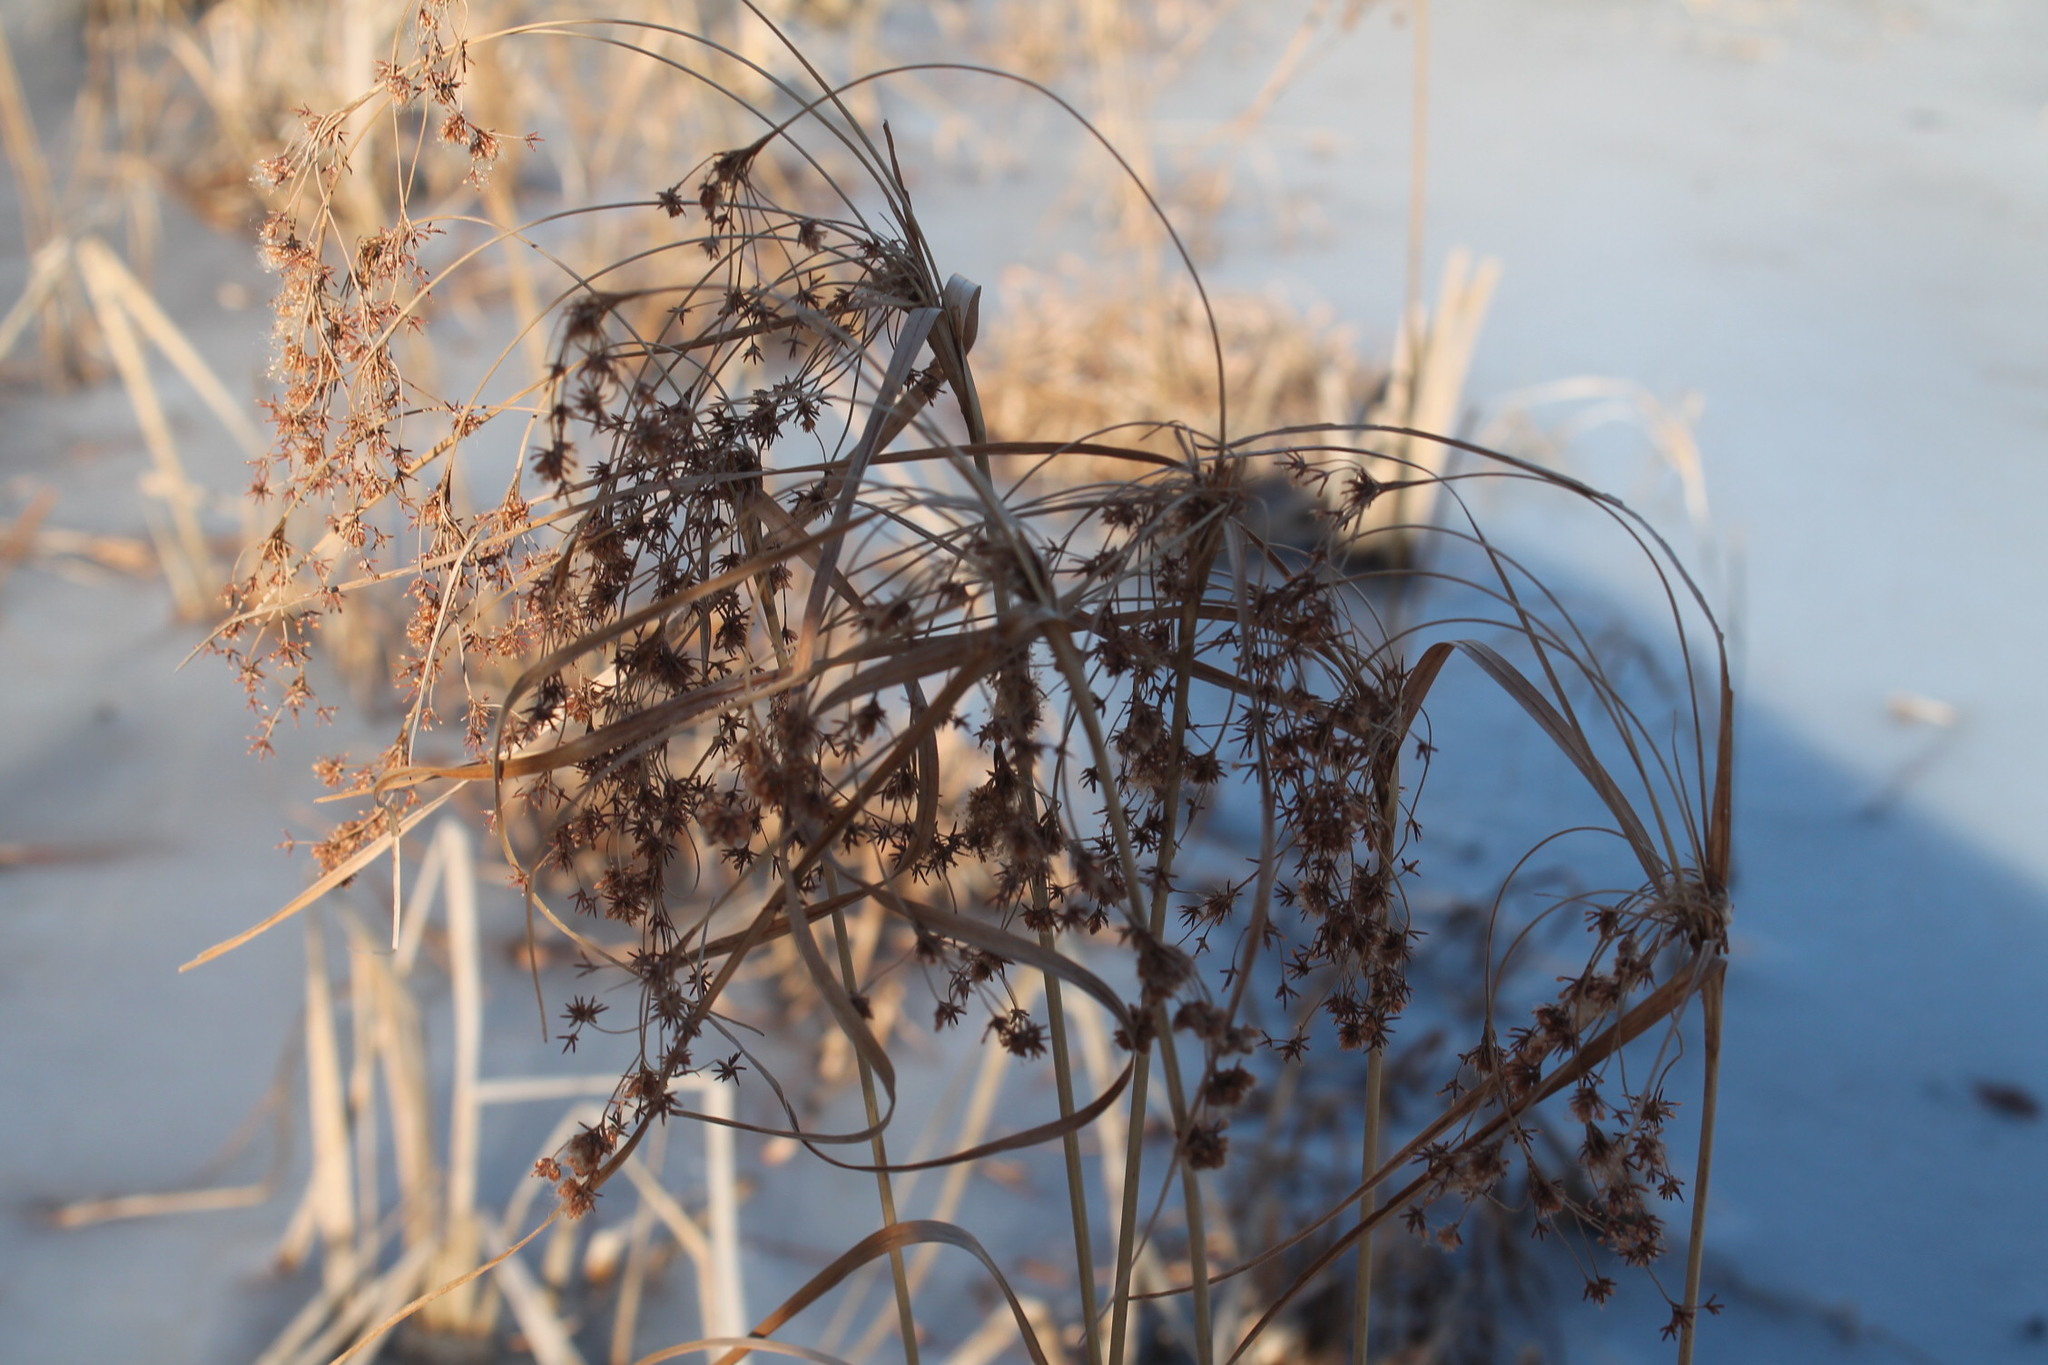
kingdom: Plantae
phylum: Tracheophyta
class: Liliopsida
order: Poales
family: Cyperaceae
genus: Scirpus
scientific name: Scirpus cyperinus
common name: Black-sheathed bulrush
